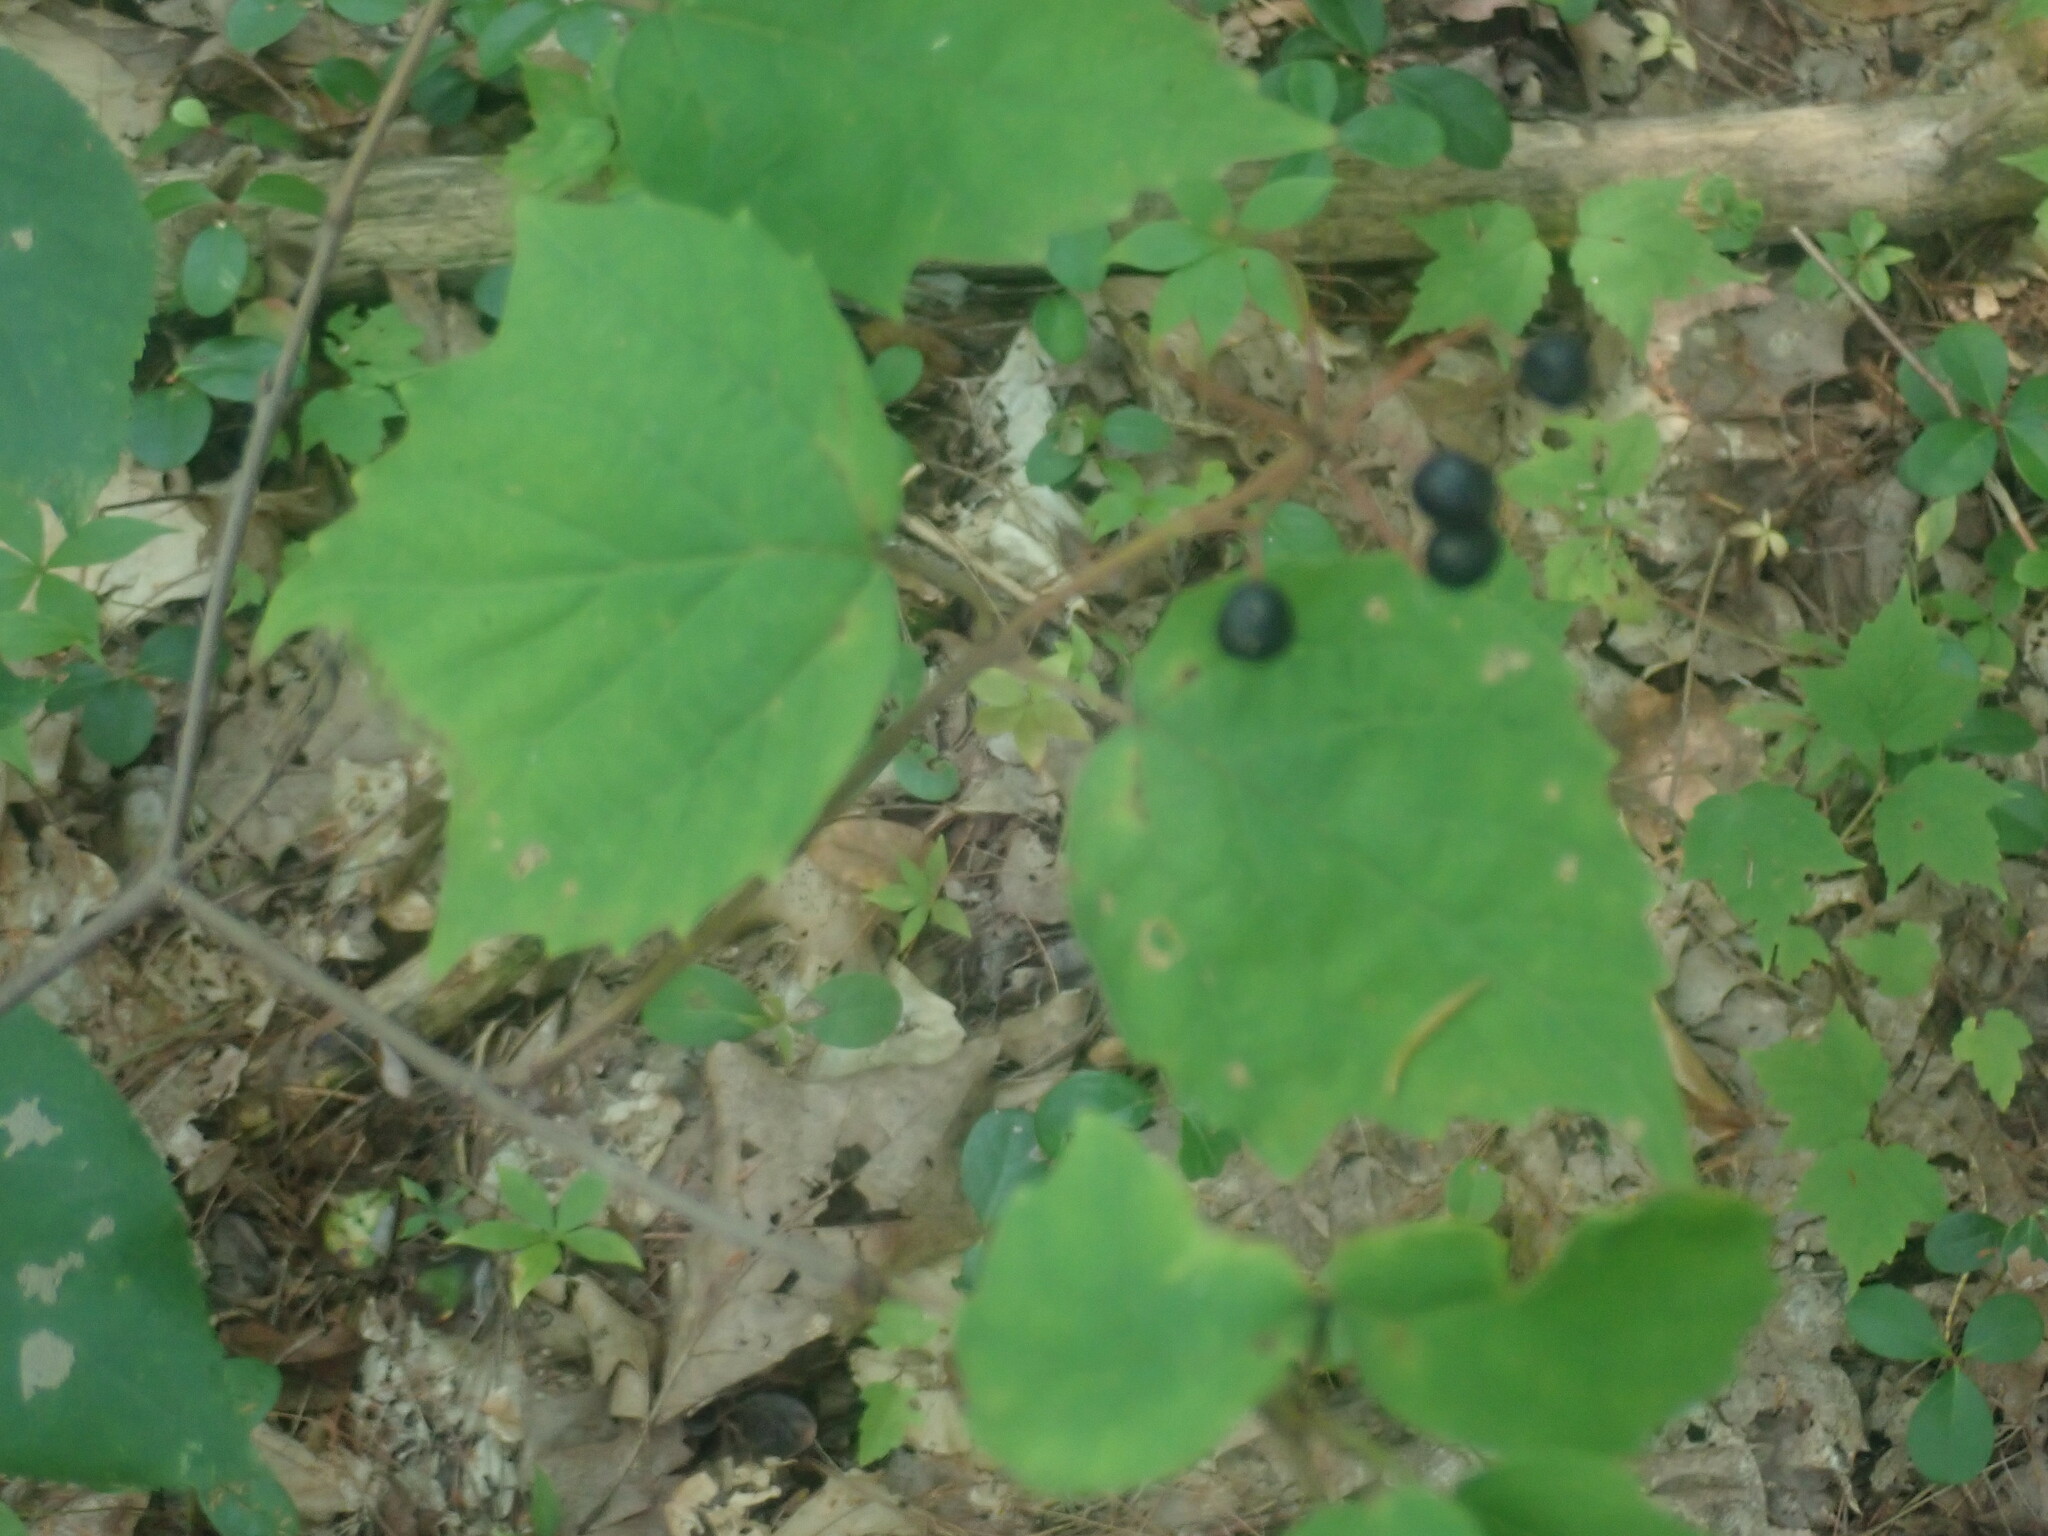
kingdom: Plantae
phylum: Tracheophyta
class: Magnoliopsida
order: Dipsacales
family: Viburnaceae
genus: Viburnum
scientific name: Viburnum acerifolium
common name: Dockmackie
